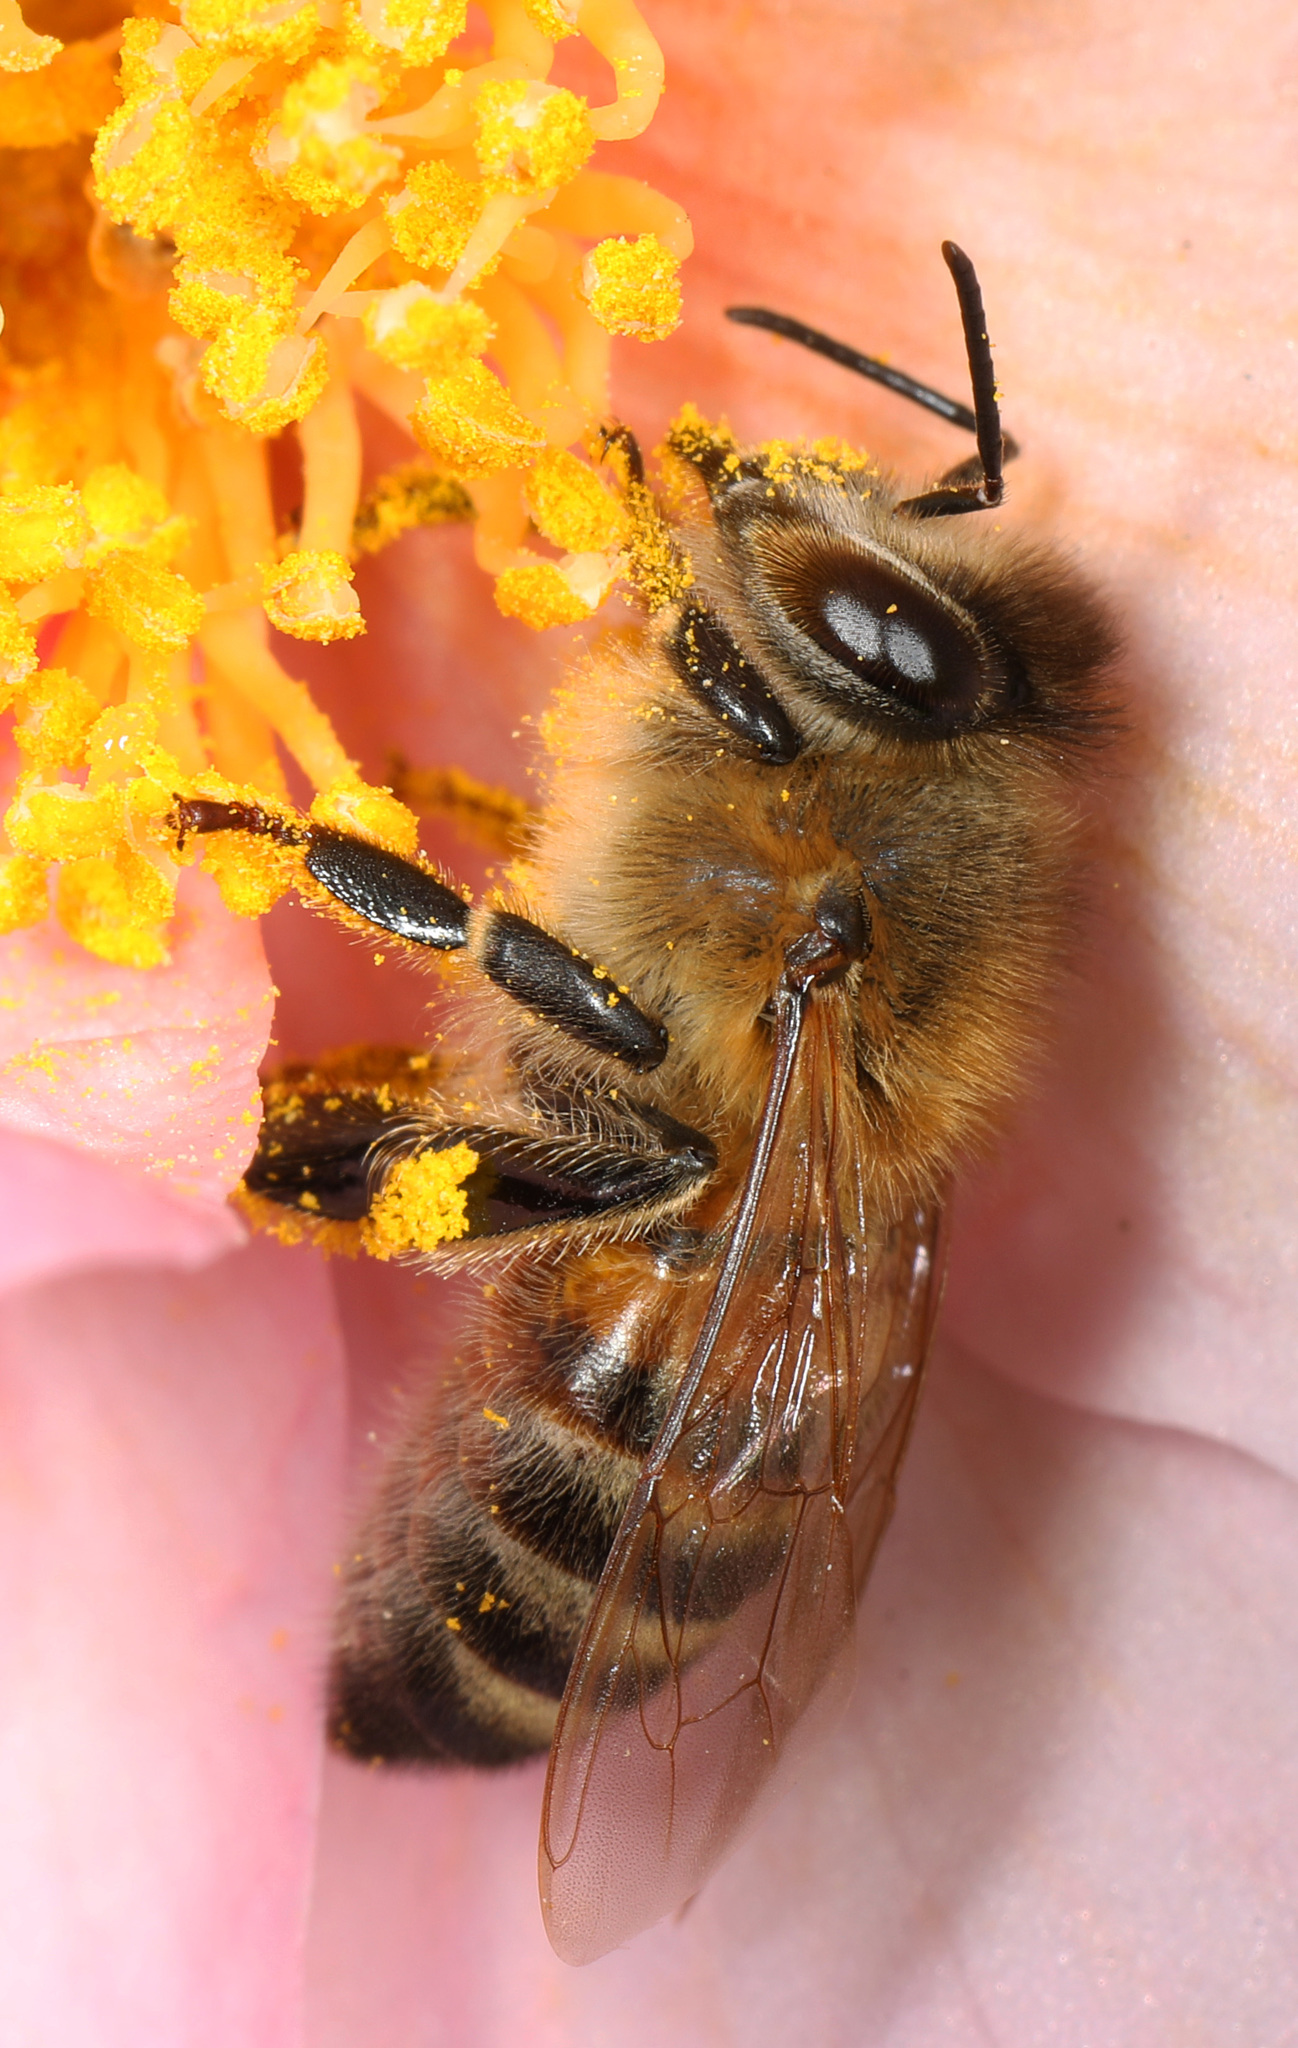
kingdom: Animalia
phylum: Arthropoda
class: Insecta
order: Hymenoptera
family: Apidae
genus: Apis
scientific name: Apis mellifera
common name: Honey bee
